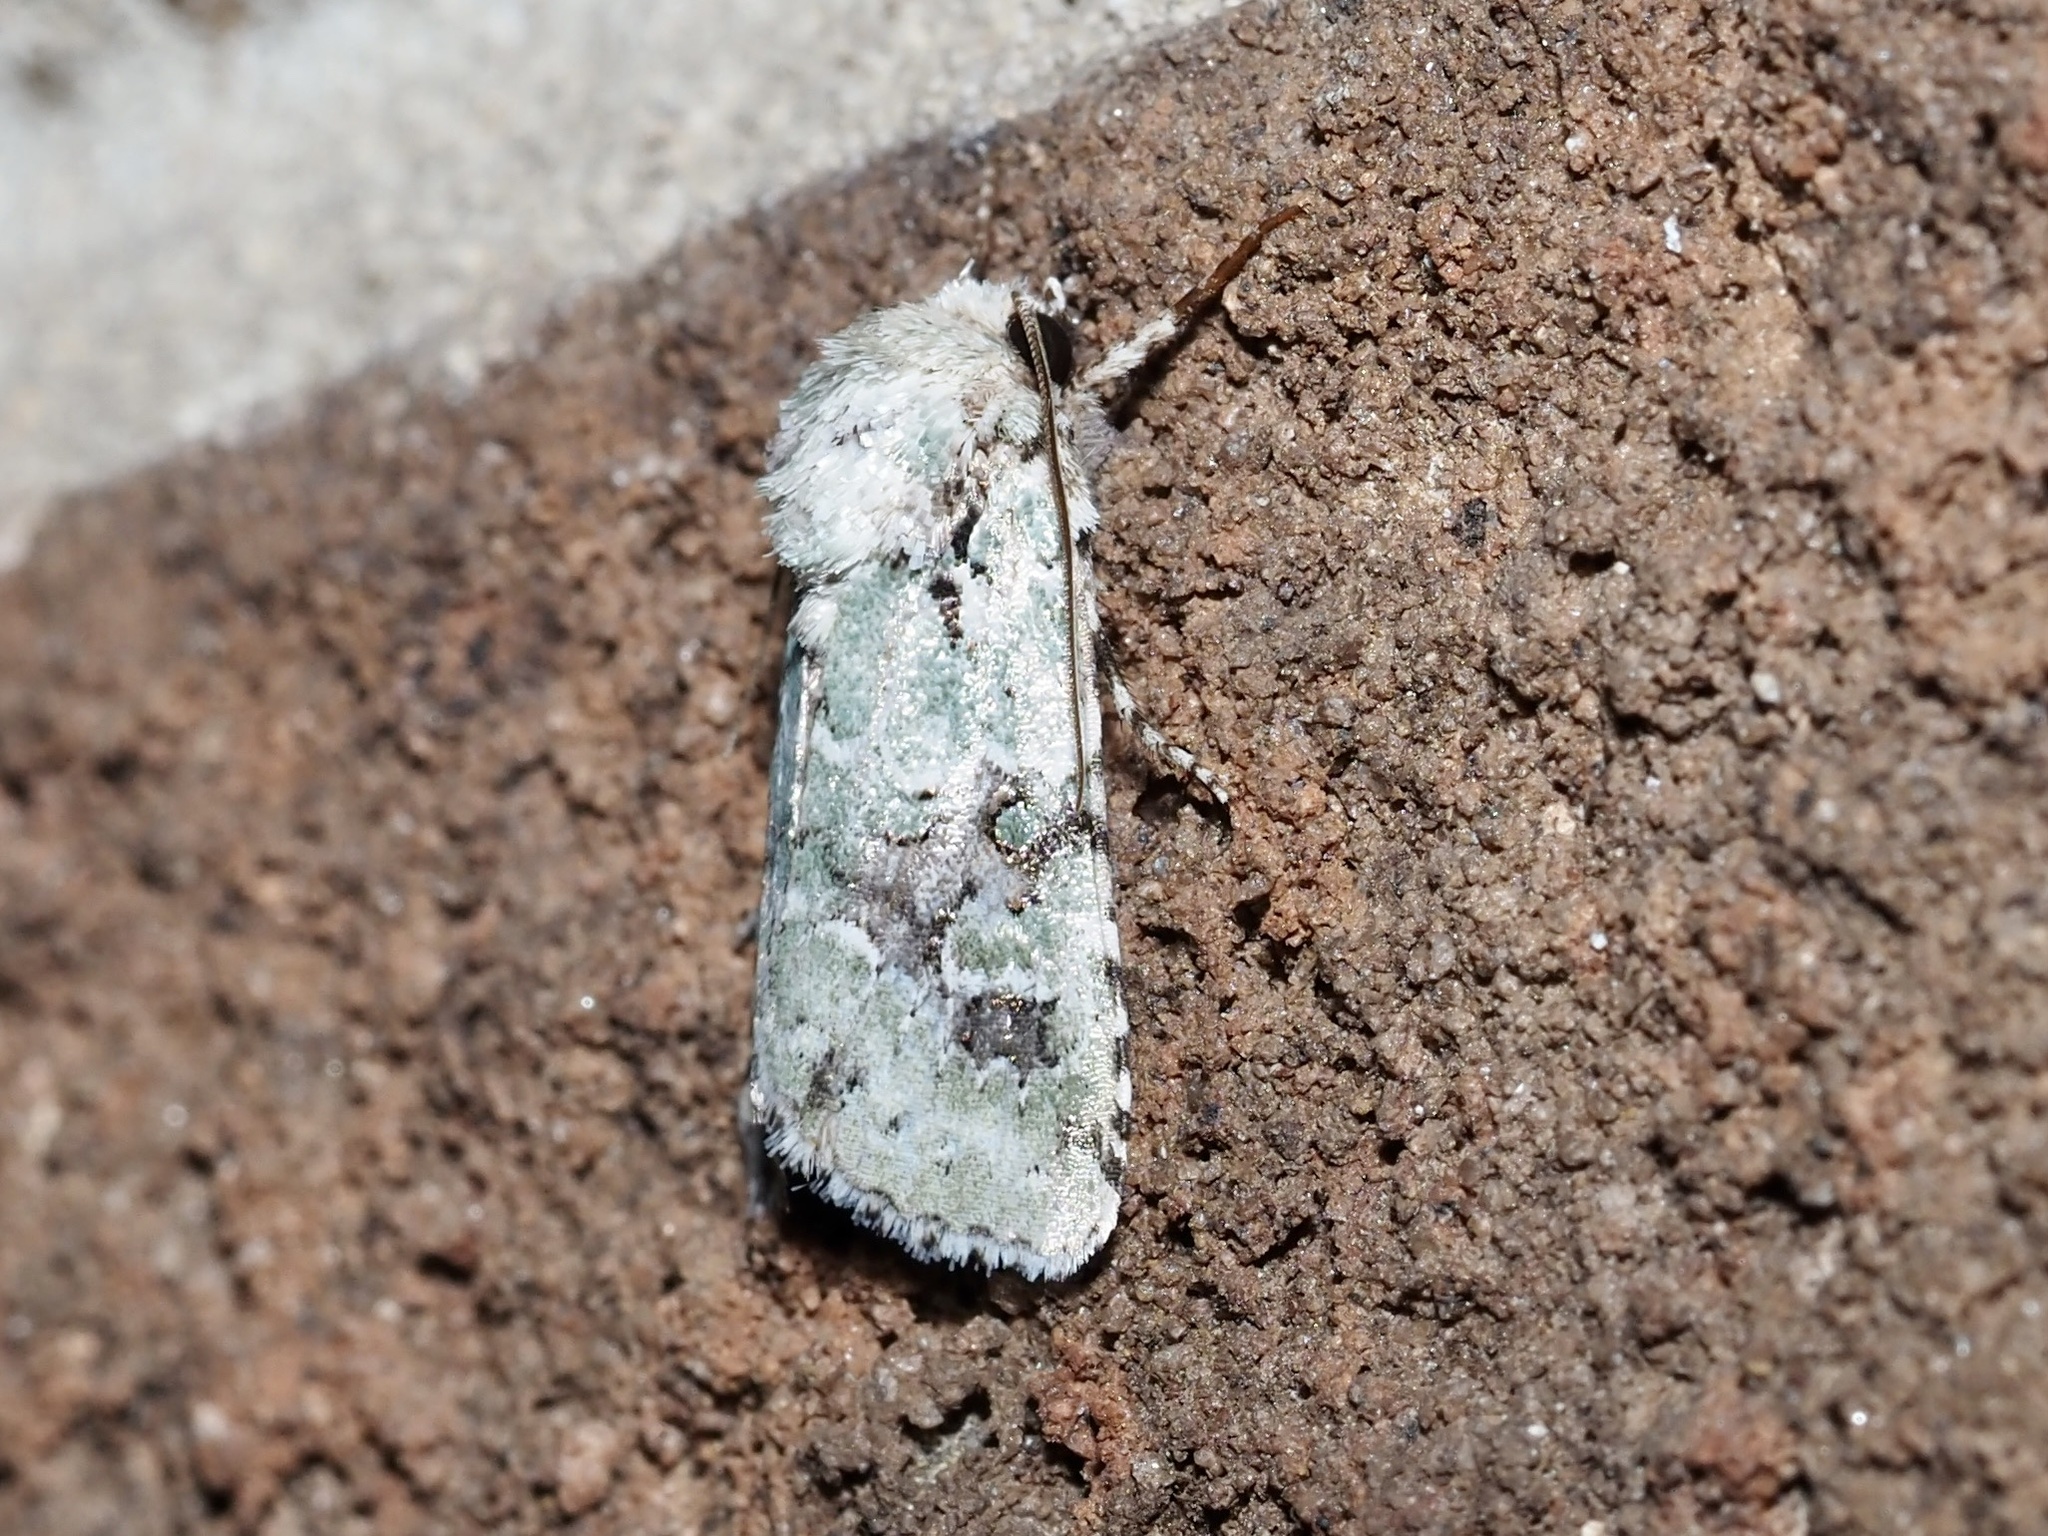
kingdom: Animalia
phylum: Arthropoda
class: Insecta
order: Lepidoptera
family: Noctuidae
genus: Lacinipolia
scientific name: Lacinipolia laudabilis
